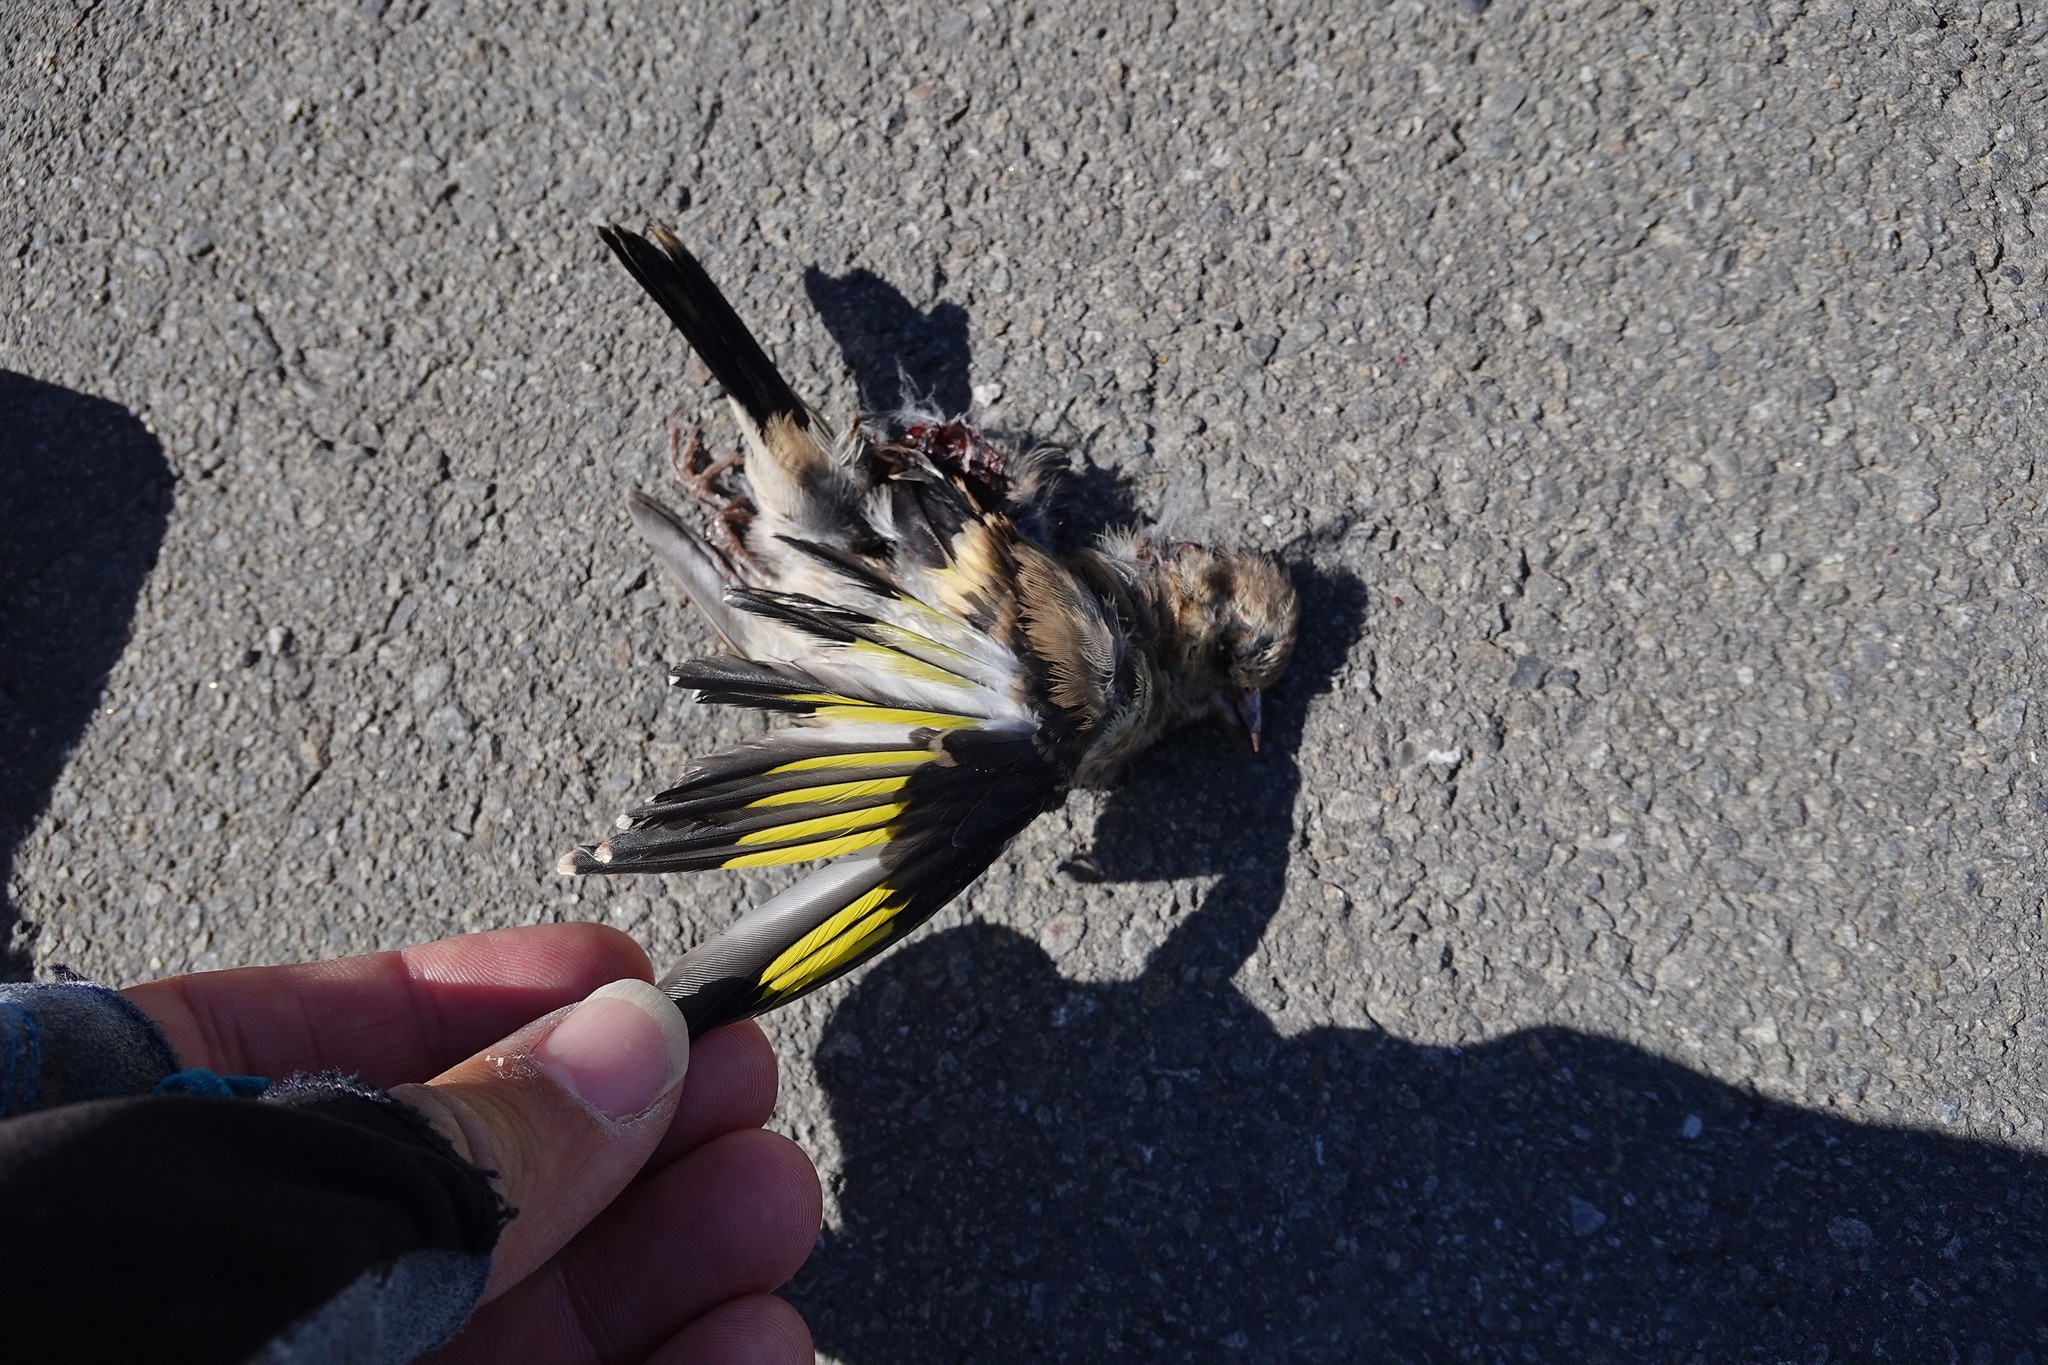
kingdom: Animalia
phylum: Chordata
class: Aves
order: Passeriformes
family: Fringillidae
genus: Carduelis
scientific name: Carduelis carduelis
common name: European goldfinch
